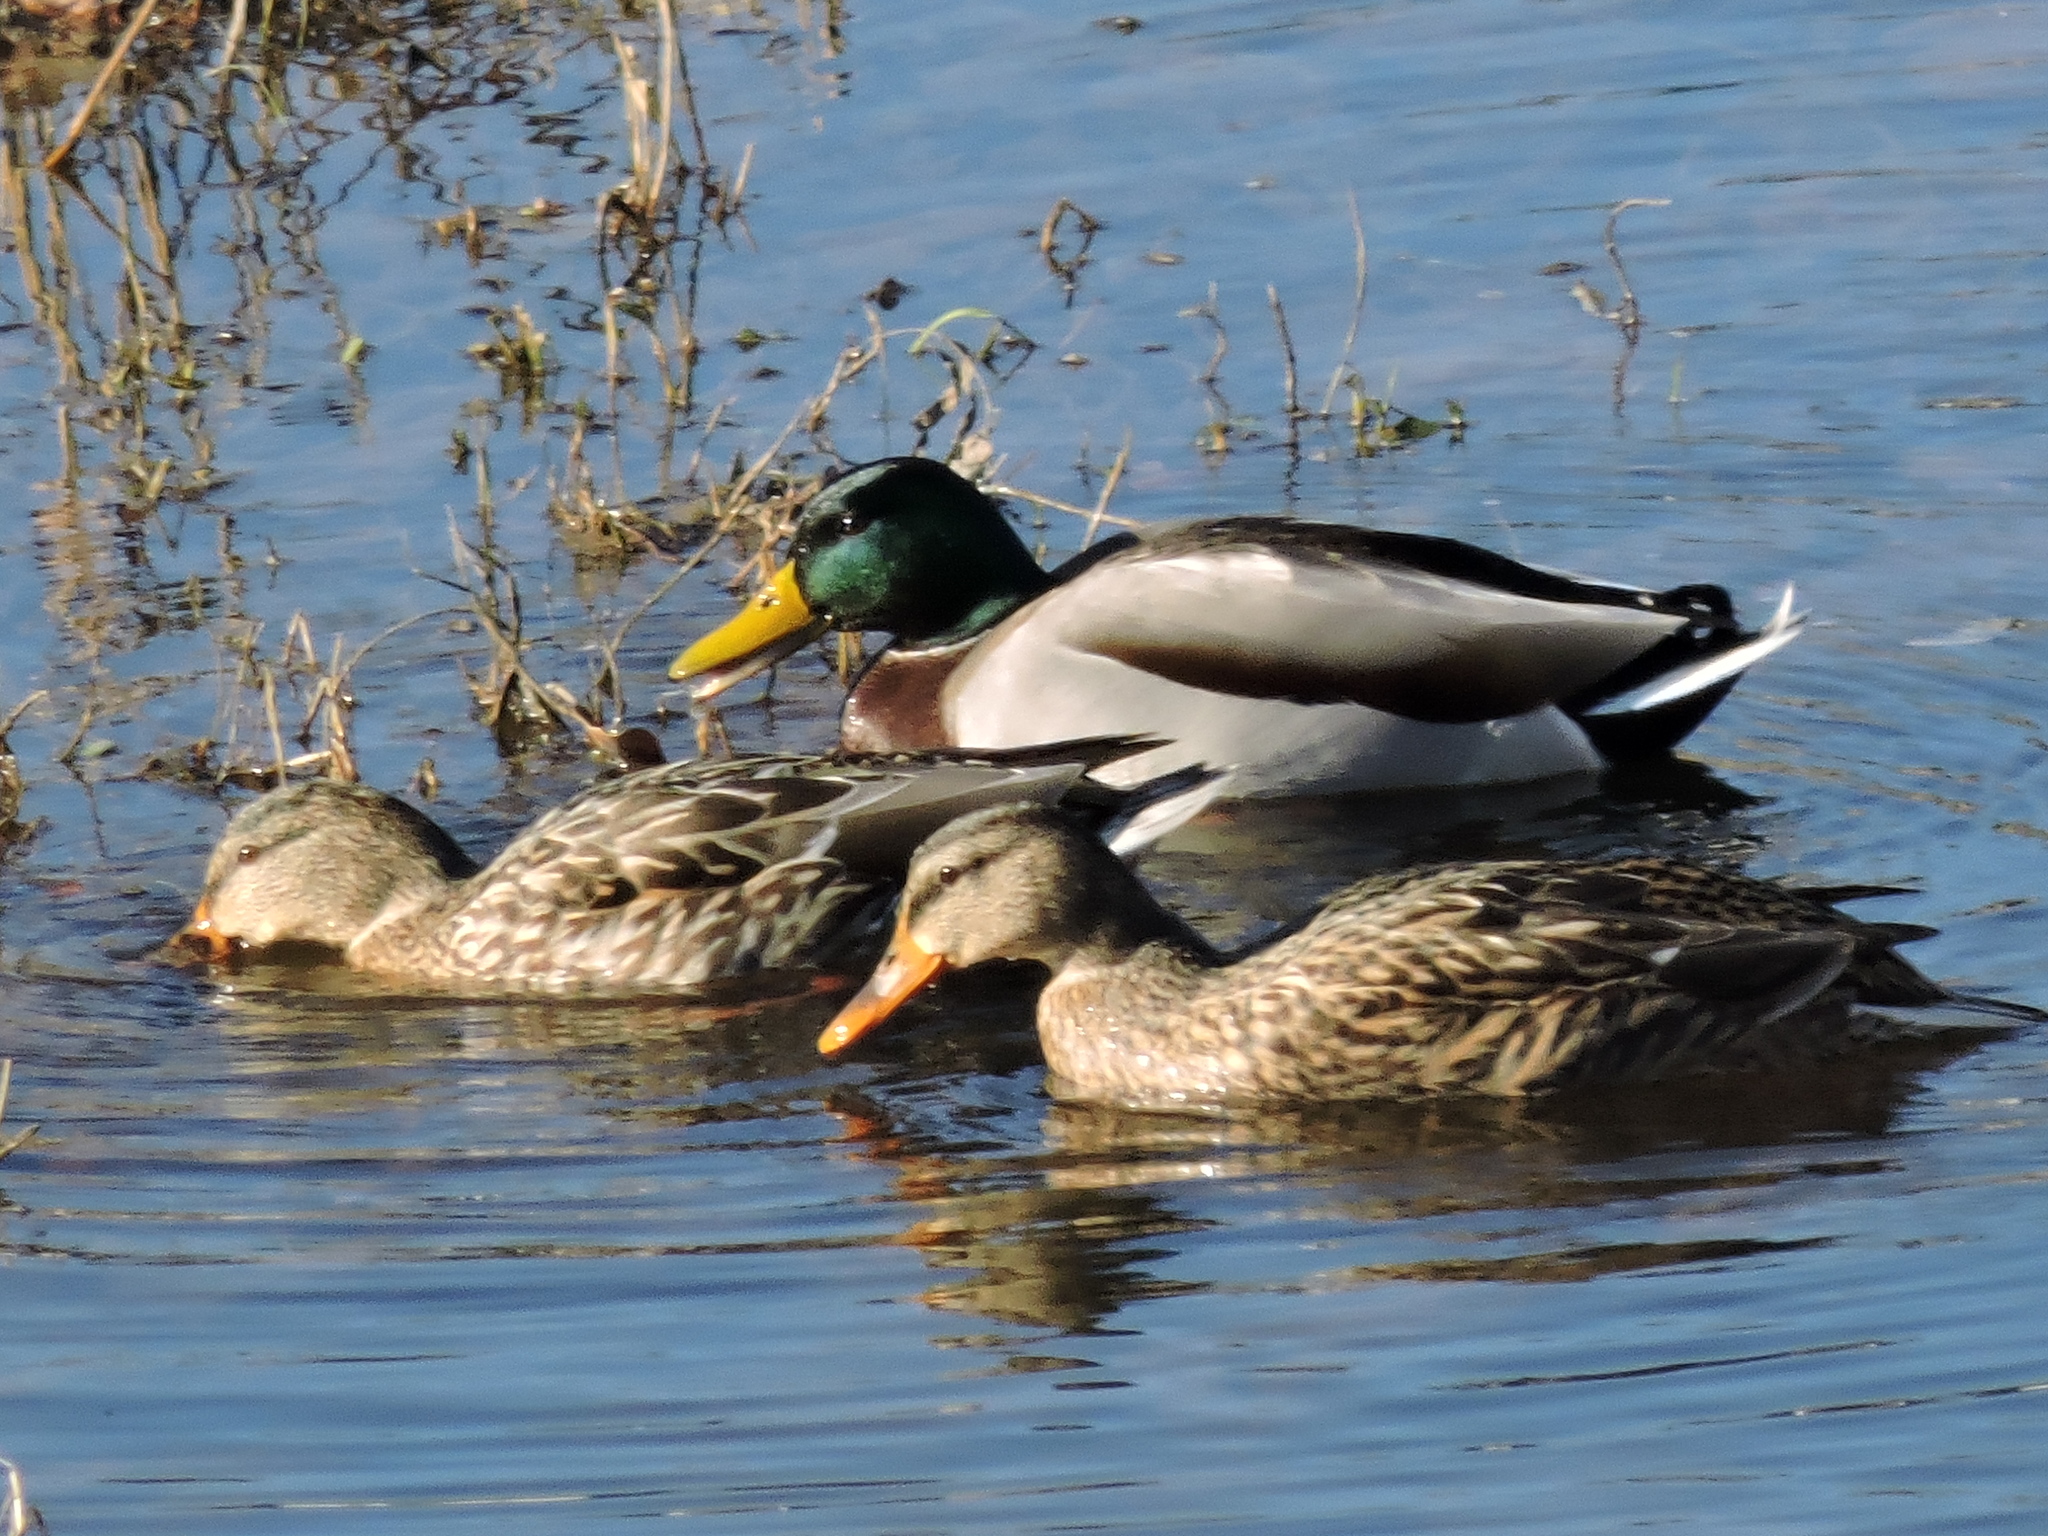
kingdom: Animalia
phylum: Chordata
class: Aves
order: Anseriformes
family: Anatidae
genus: Anas
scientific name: Anas platyrhynchos
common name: Mallard
